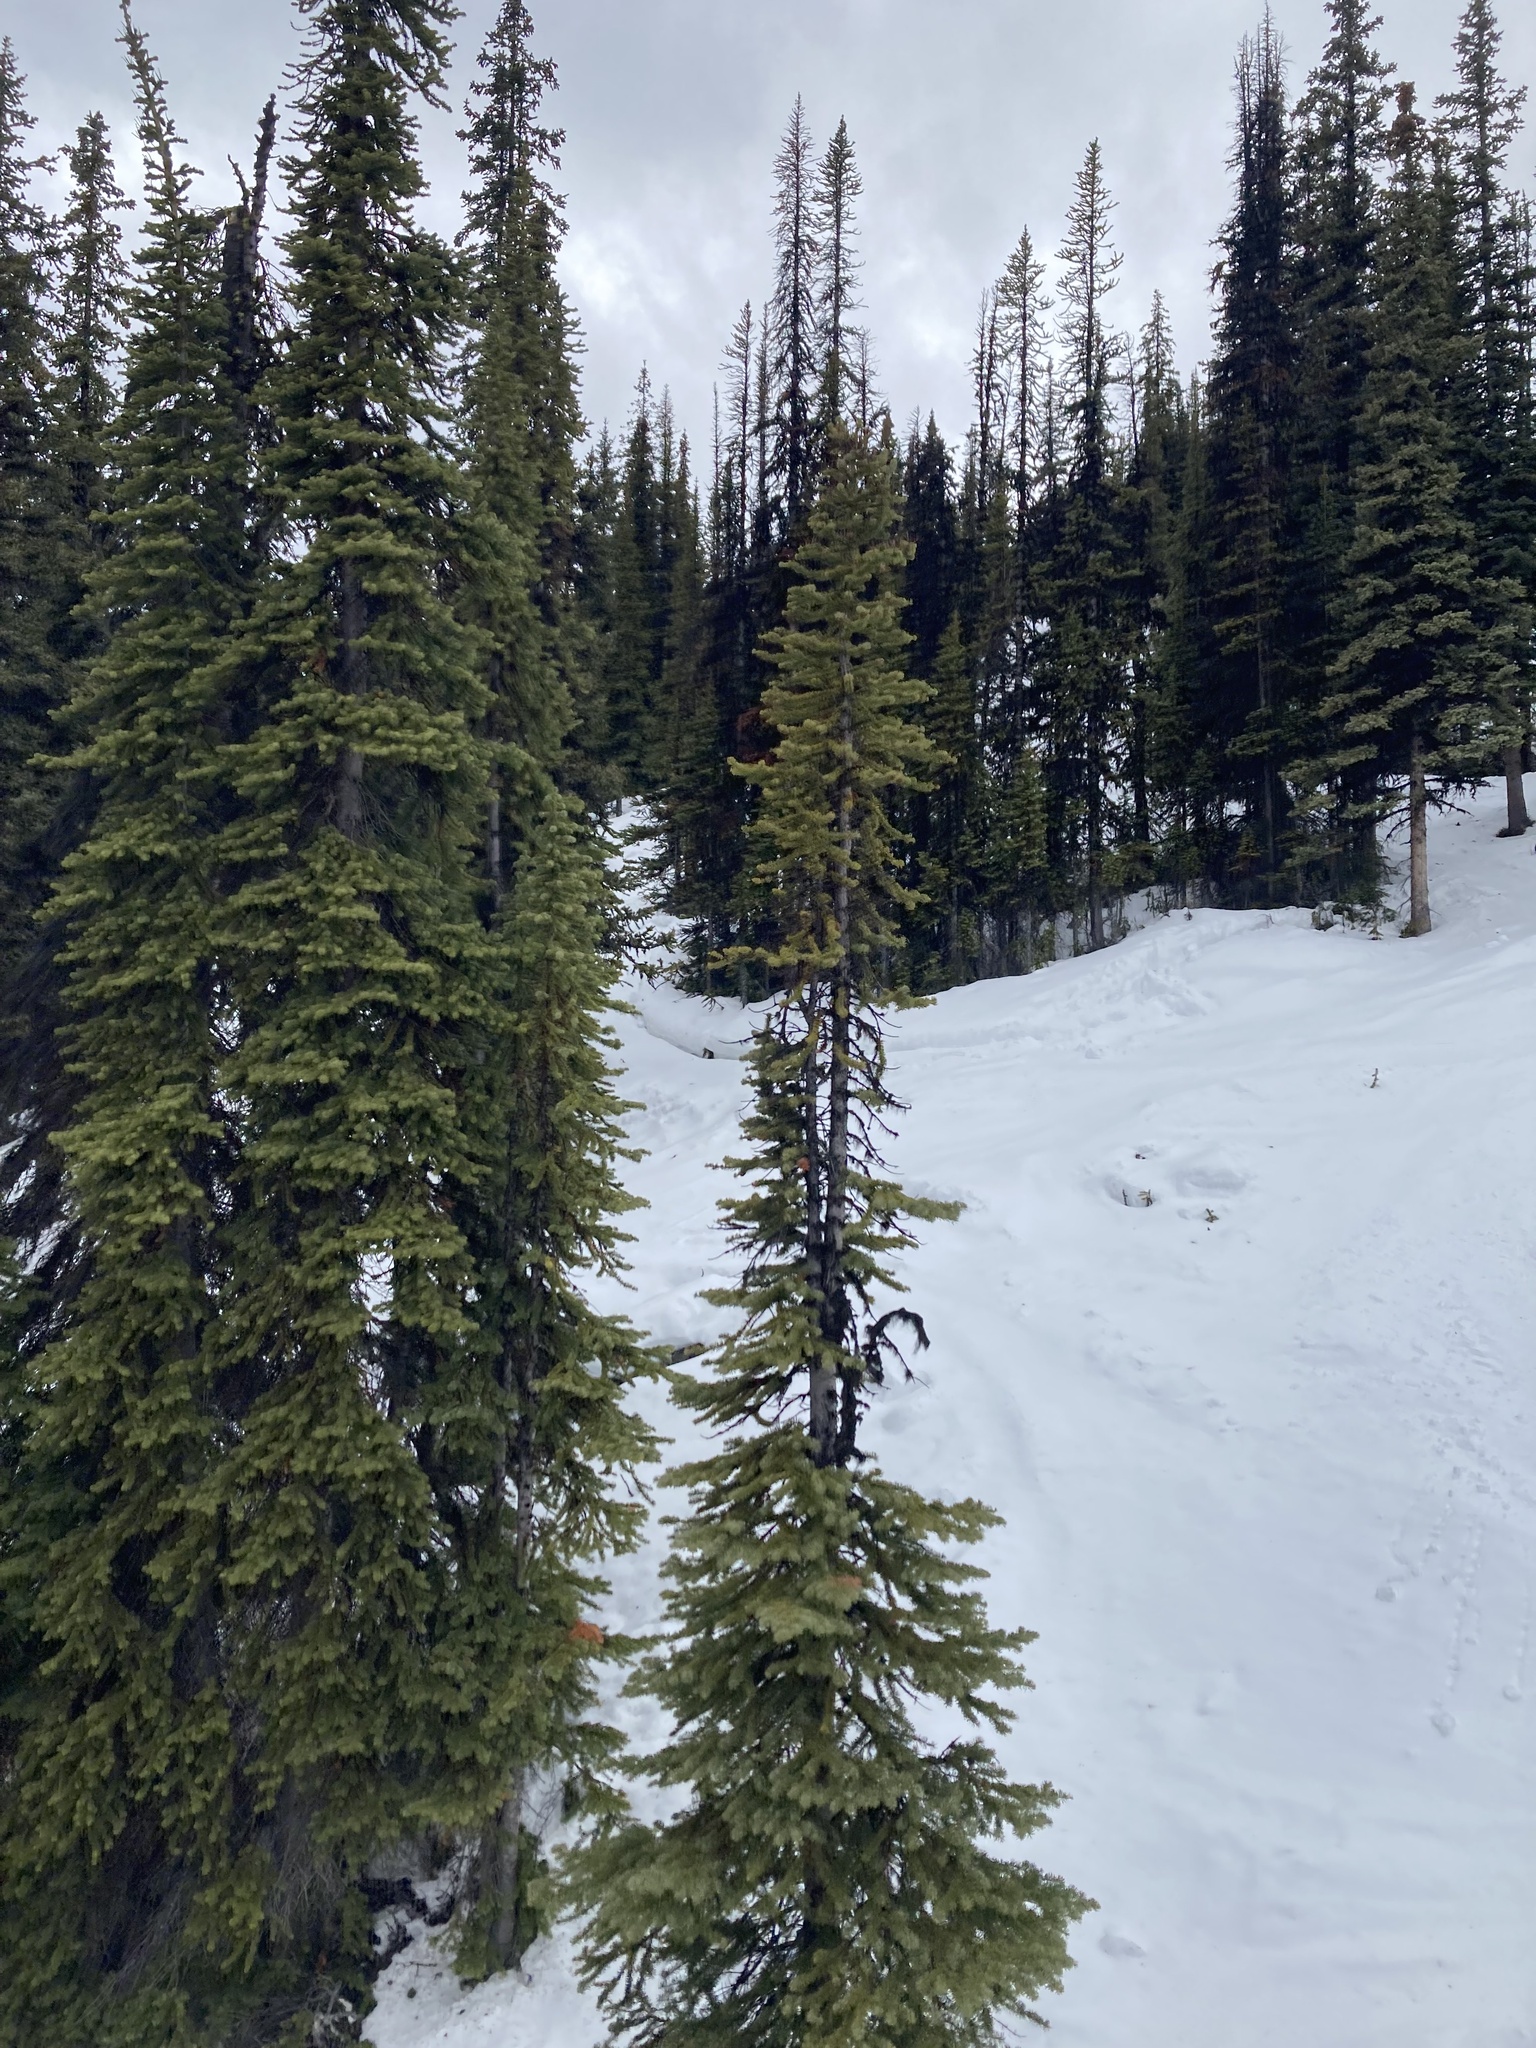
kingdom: Plantae
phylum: Tracheophyta
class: Pinopsida
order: Pinales
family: Pinaceae
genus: Abies
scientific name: Abies lasiocarpa
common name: Subalpine fir
